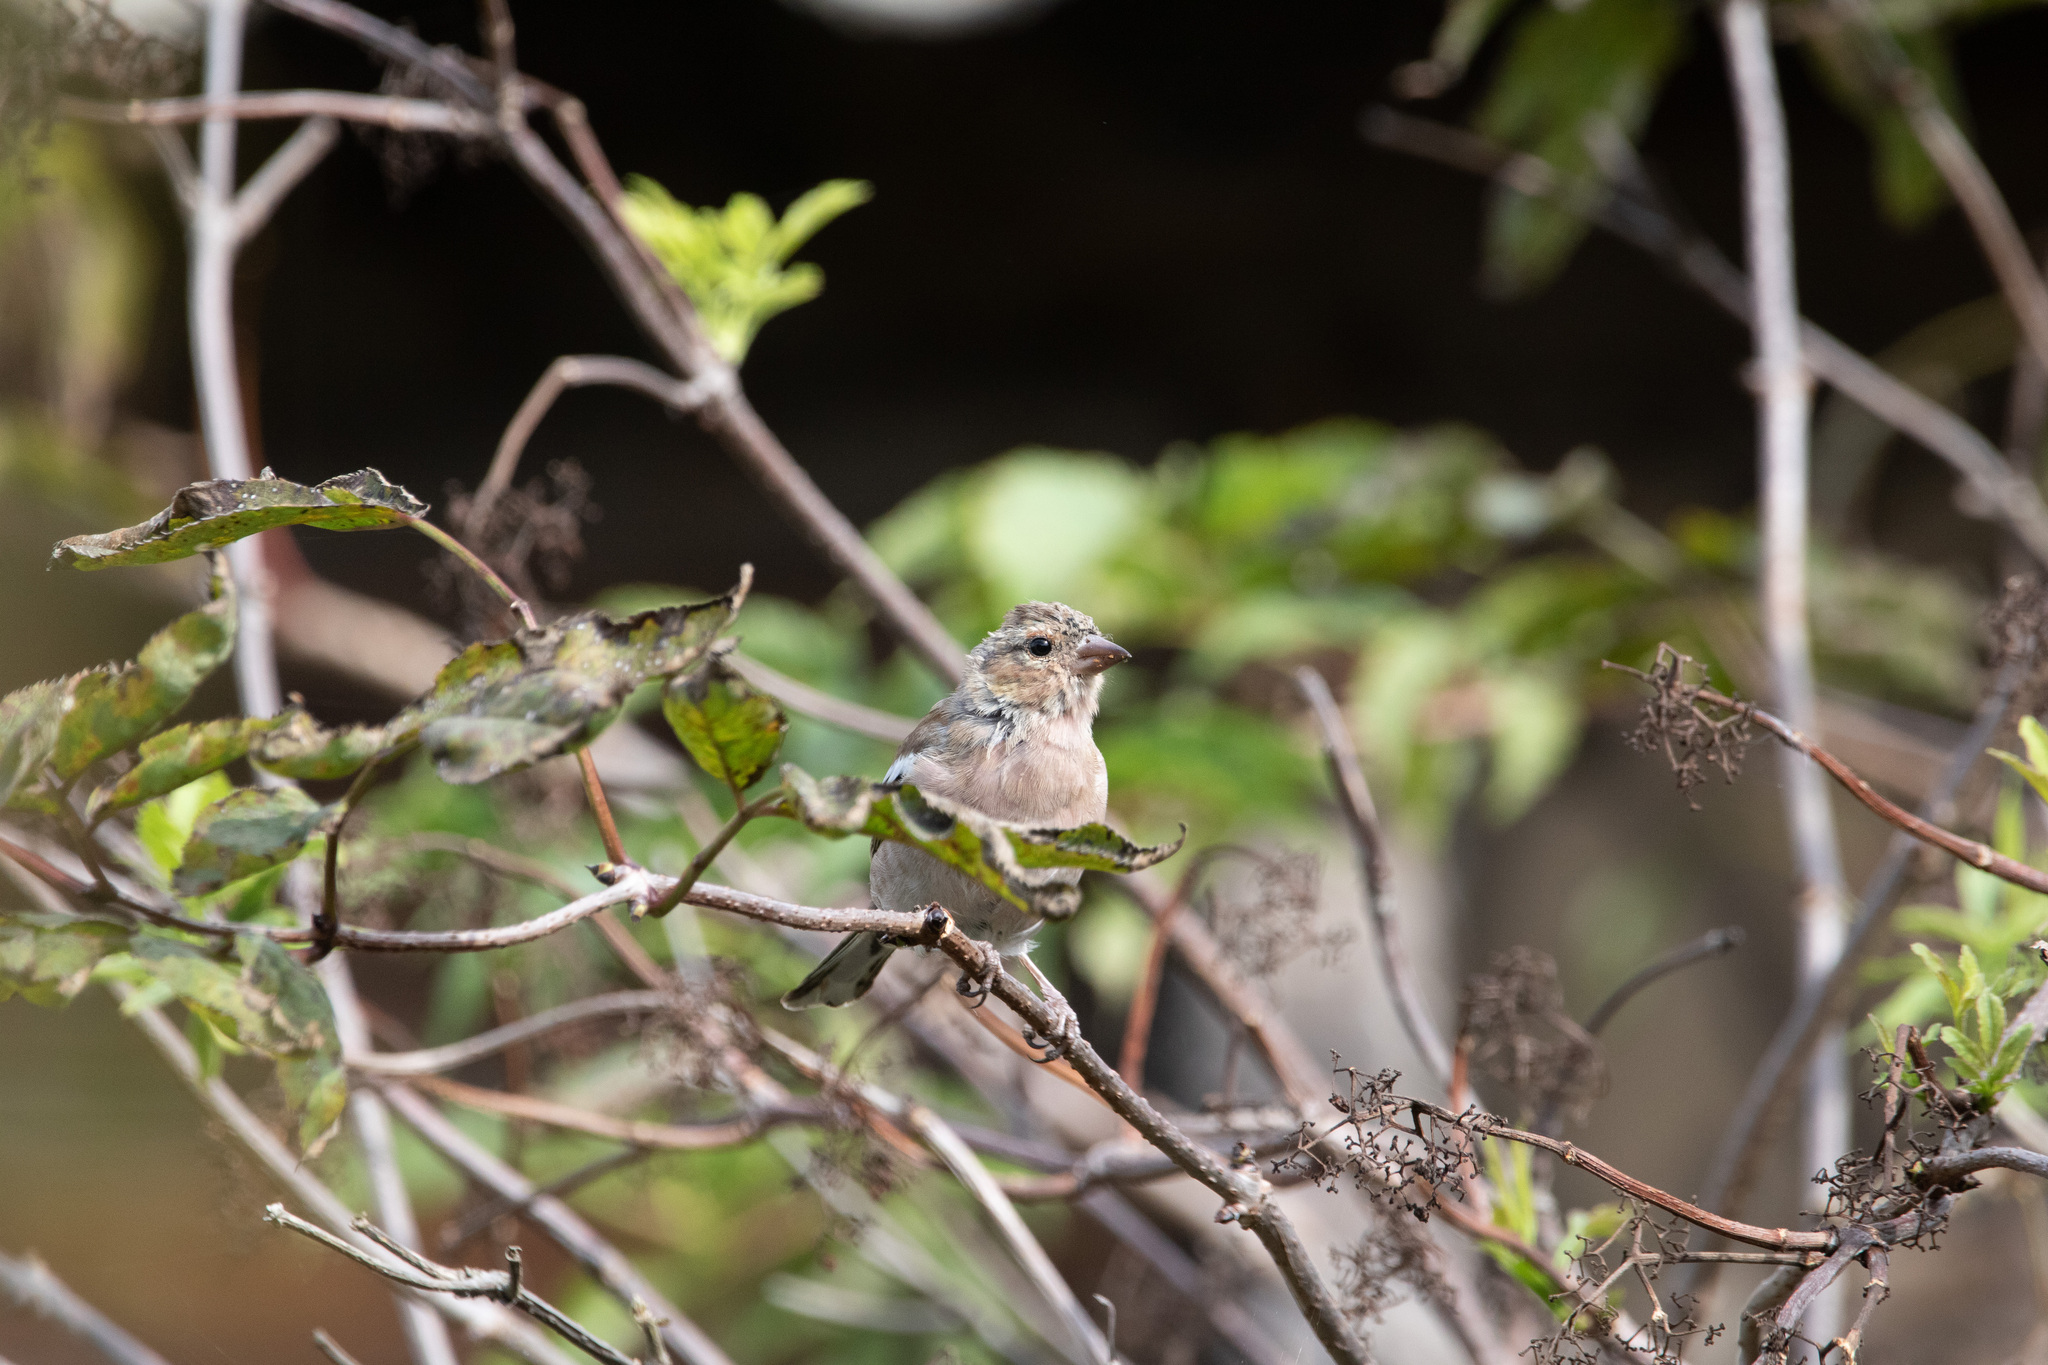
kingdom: Animalia
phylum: Chordata
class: Aves
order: Passeriformes
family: Fringillidae
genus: Fringilla
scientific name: Fringilla coelebs
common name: Common chaffinch
